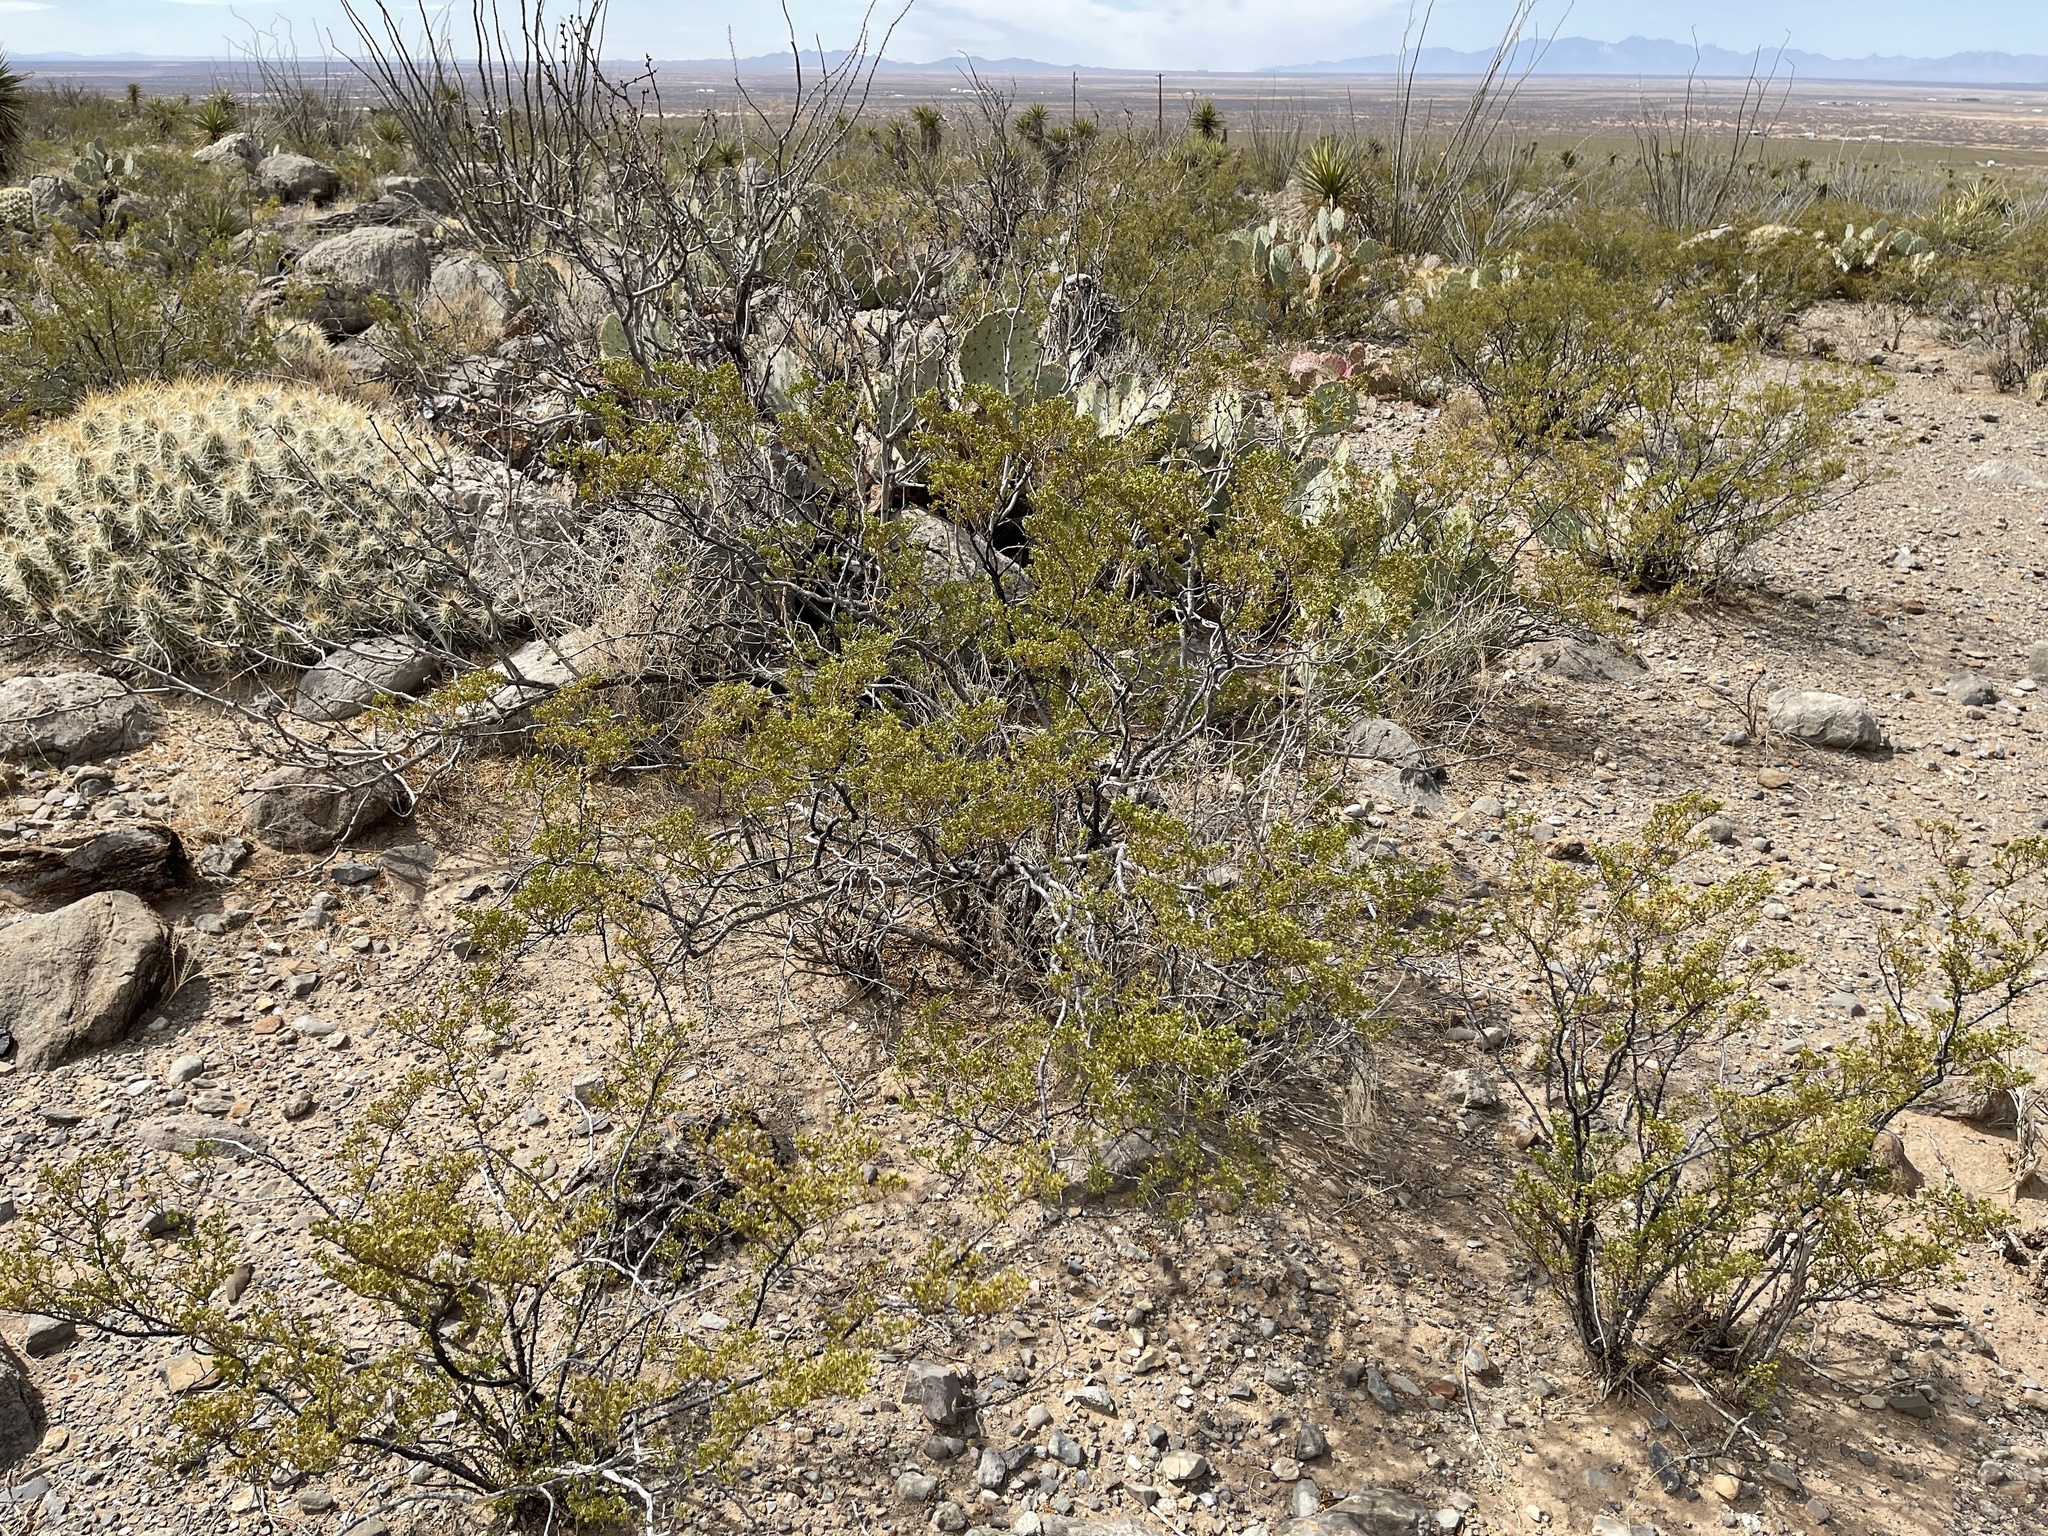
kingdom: Plantae
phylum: Tracheophyta
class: Magnoliopsida
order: Zygophyllales
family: Zygophyllaceae
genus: Larrea
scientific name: Larrea tridentata
